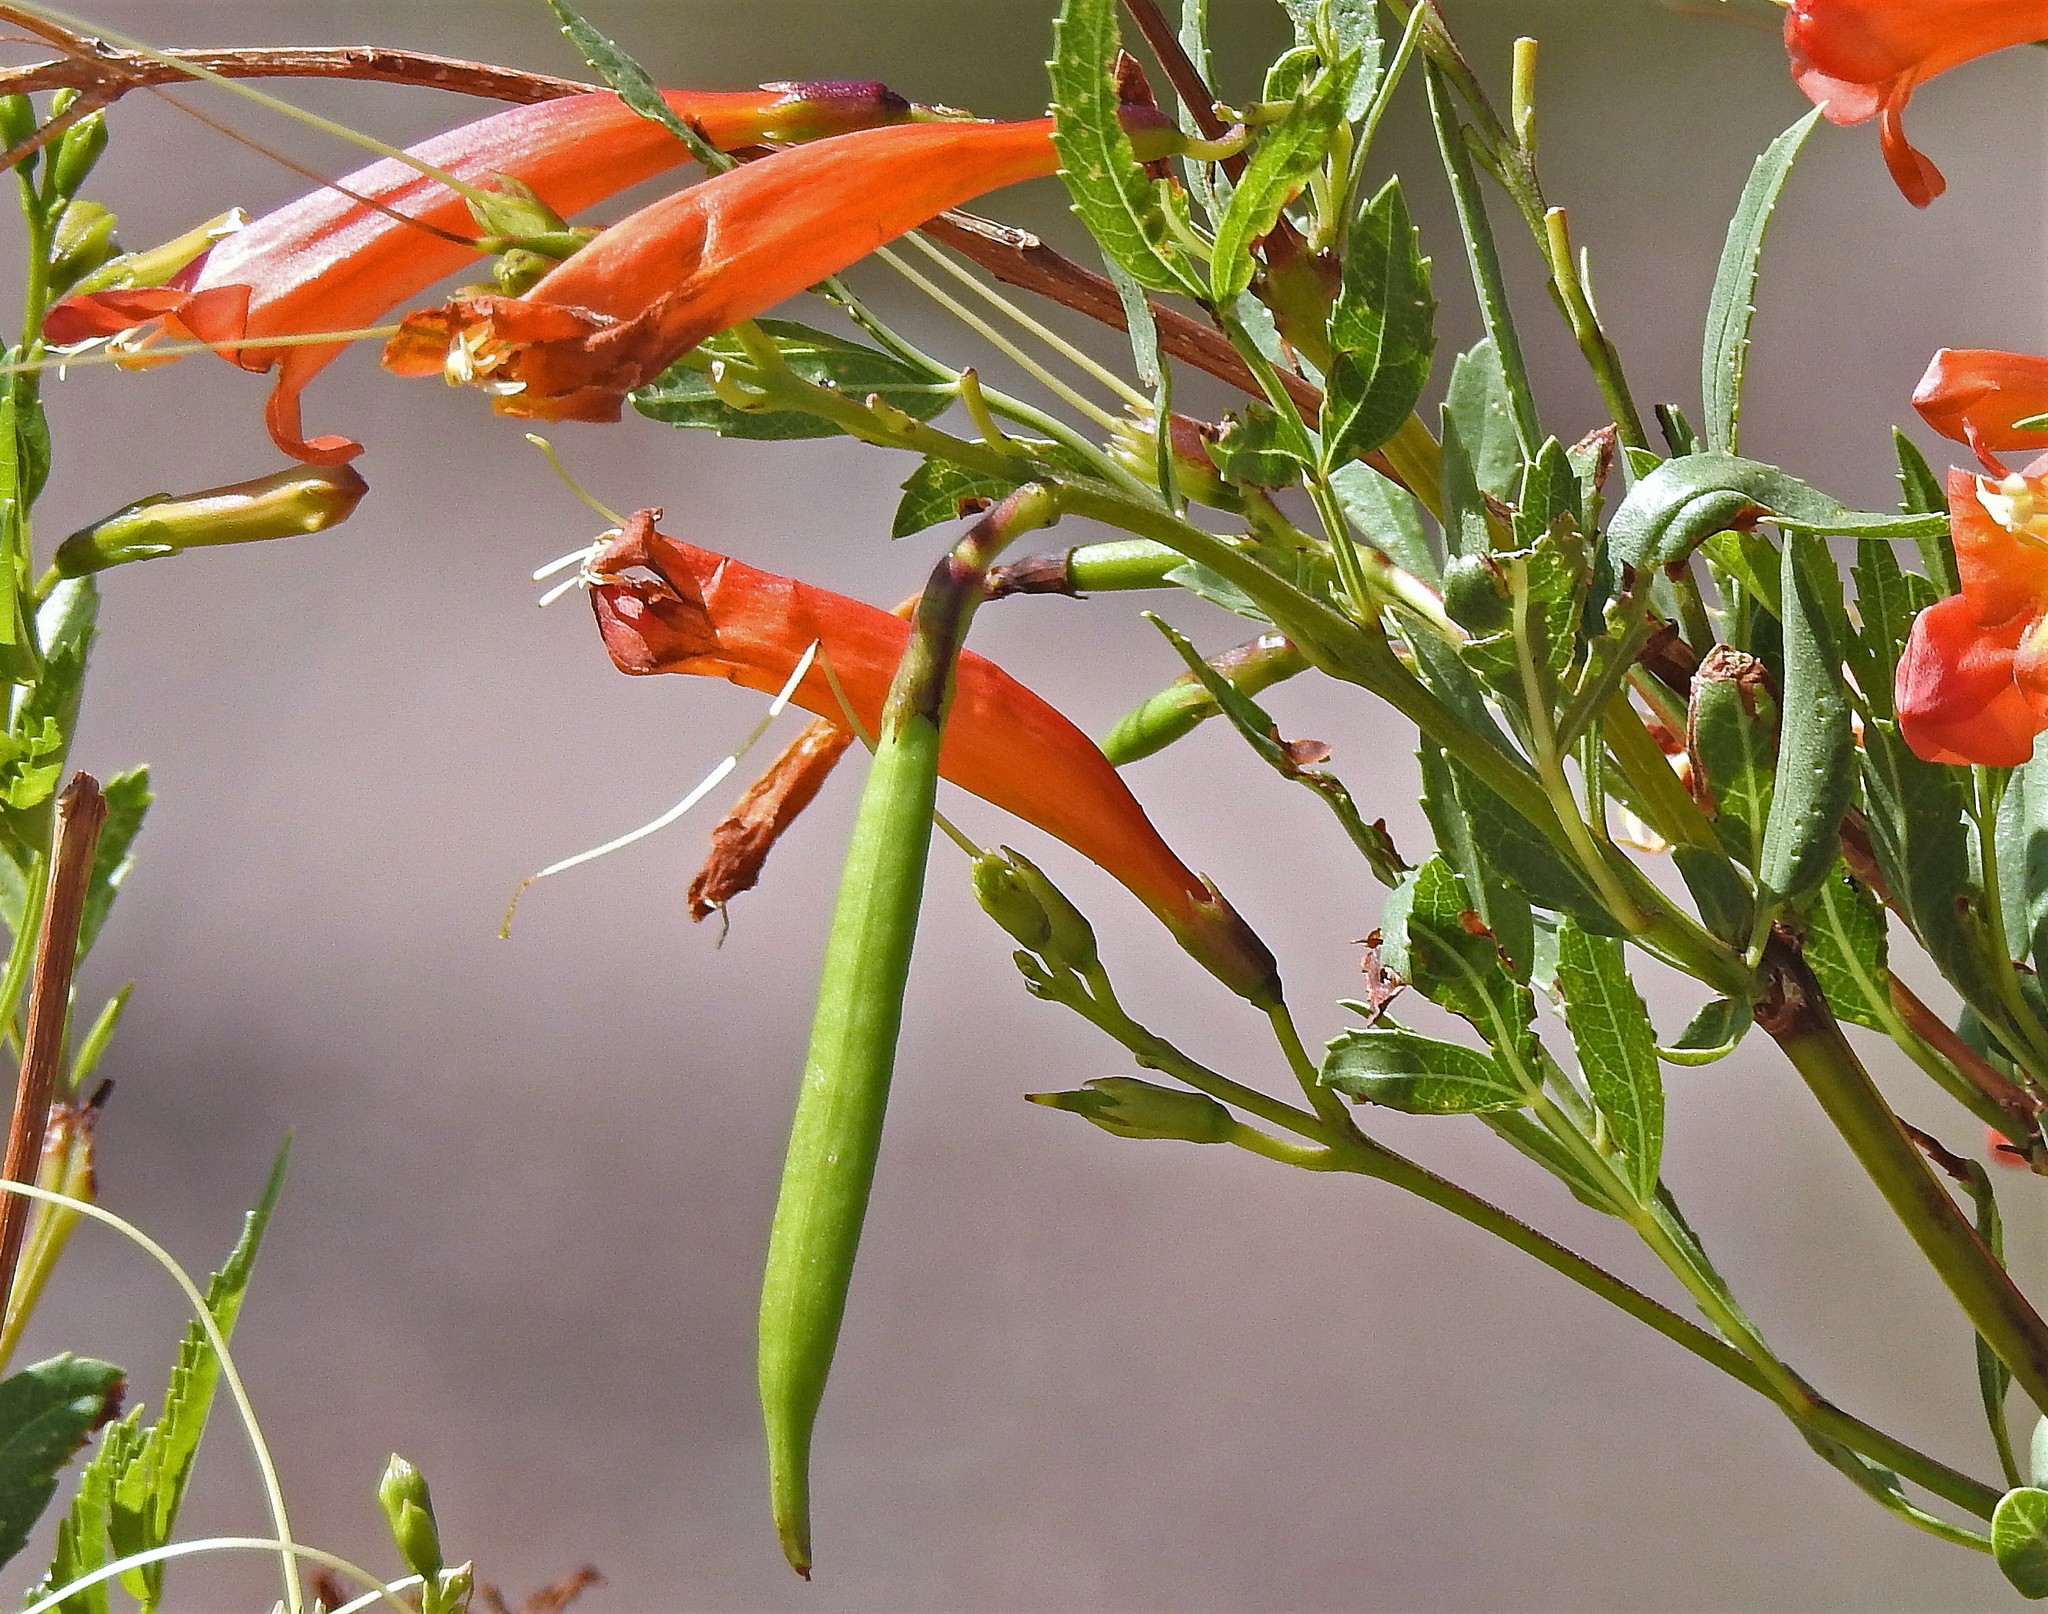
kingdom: Plantae
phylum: Tracheophyta
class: Magnoliopsida
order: Lamiales
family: Bignoniaceae
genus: Tecoma
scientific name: Tecoma fulva
